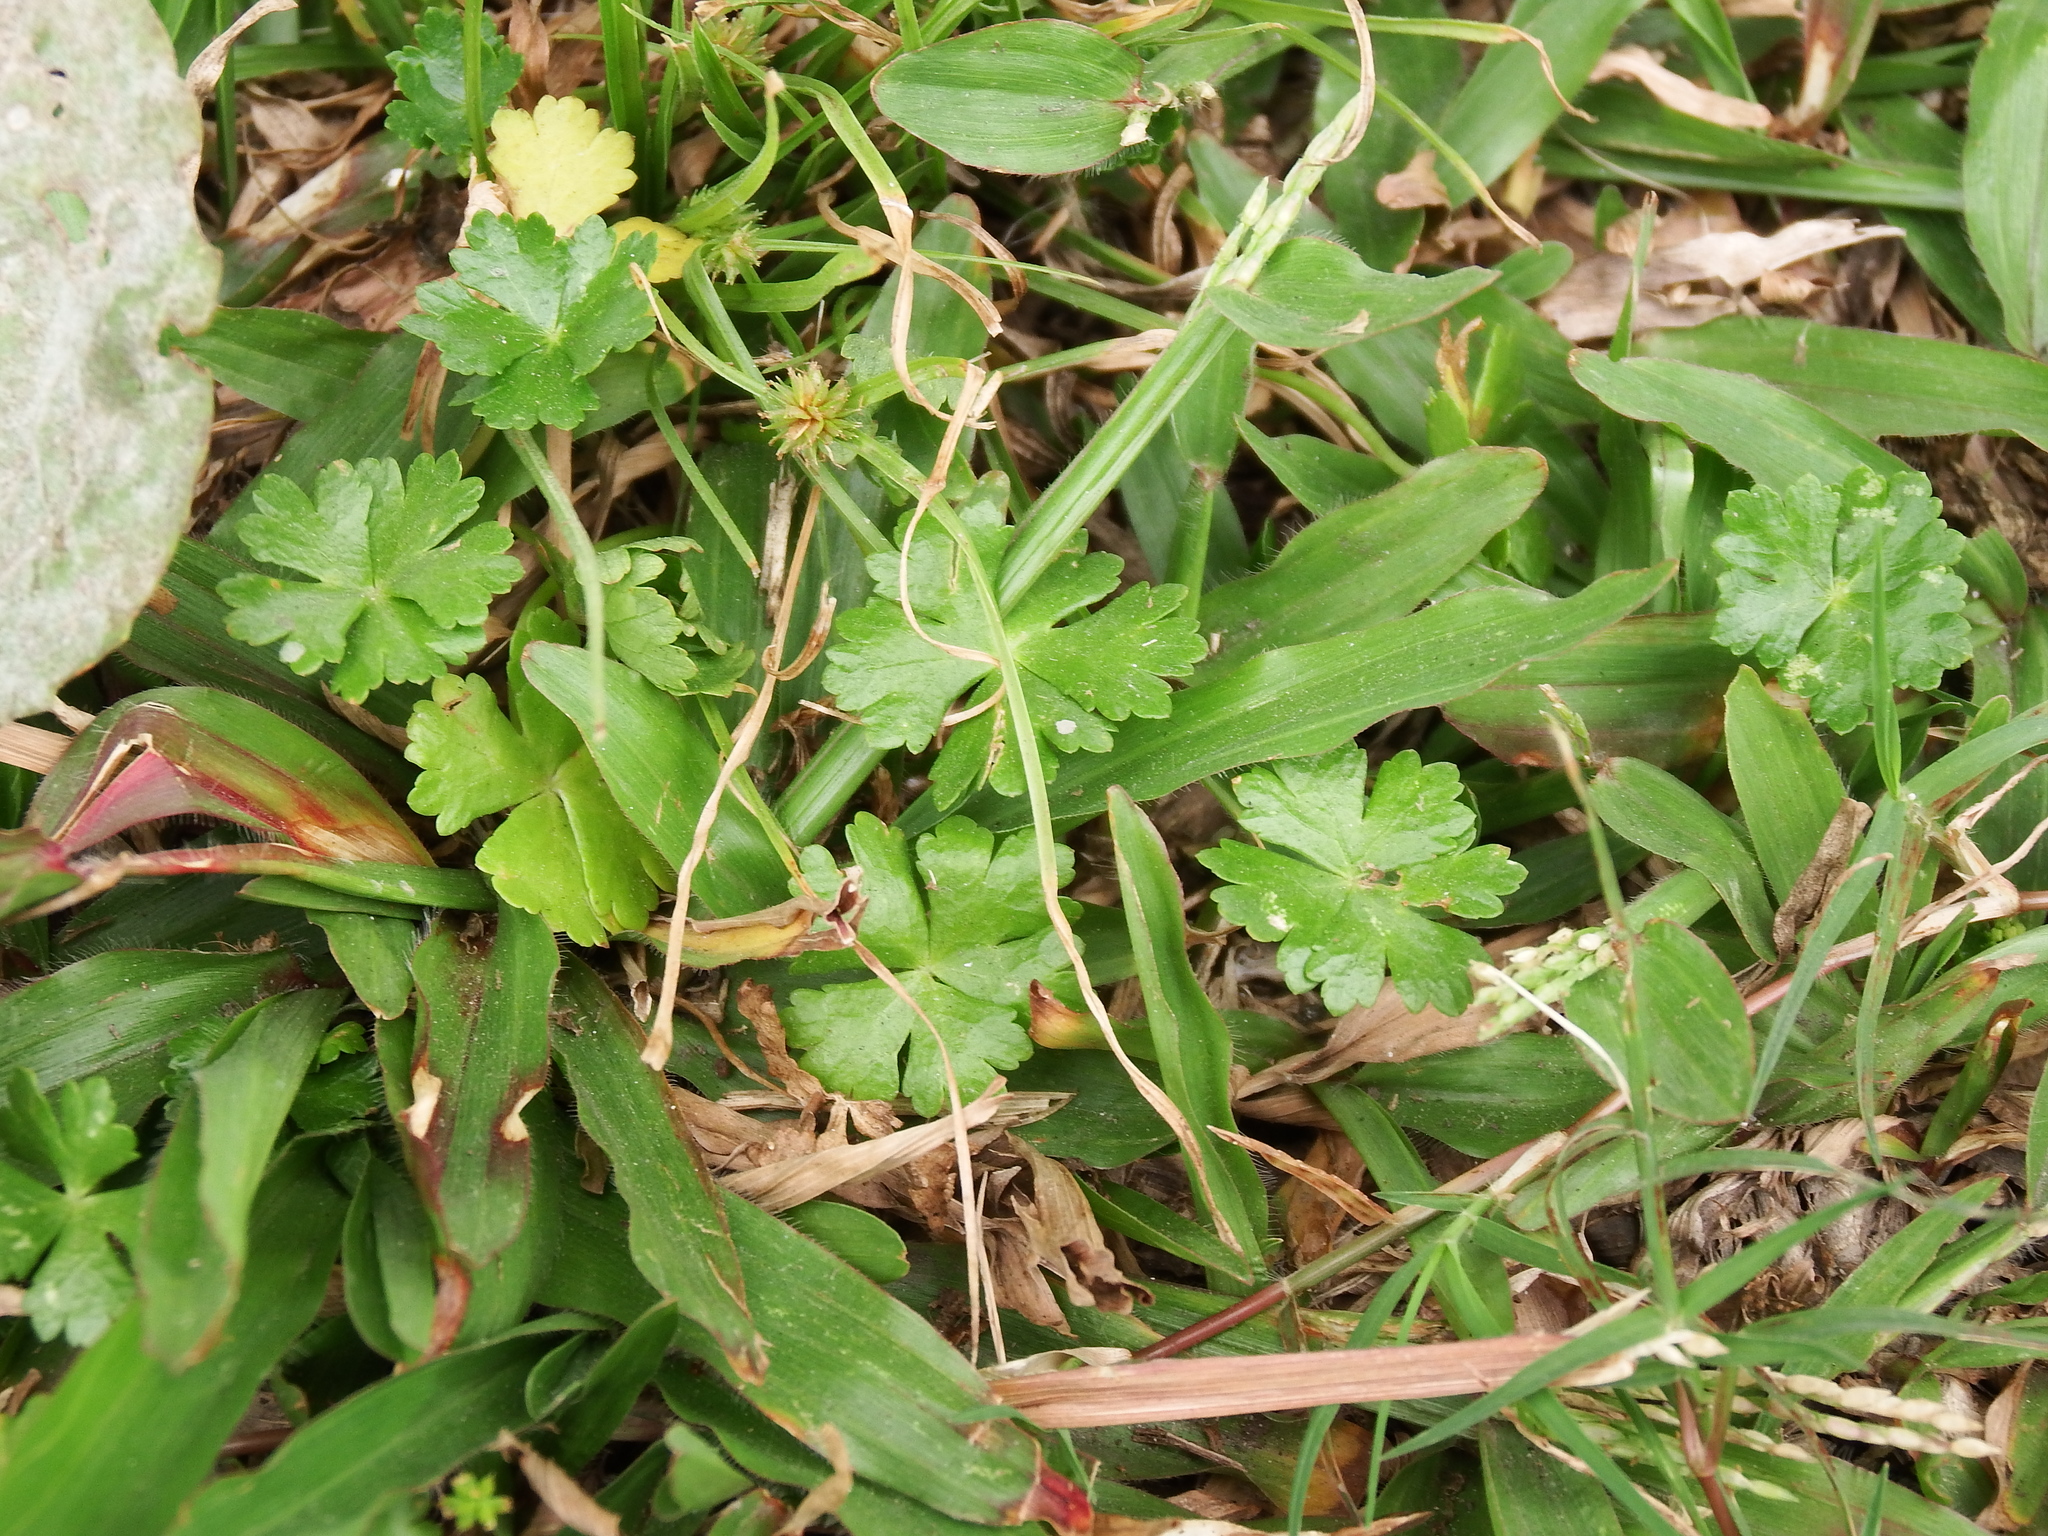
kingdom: Plantae
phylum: Tracheophyta
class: Magnoliopsida
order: Apiales
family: Araliaceae
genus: Hydrocotyle
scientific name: Hydrocotyle batrachium
